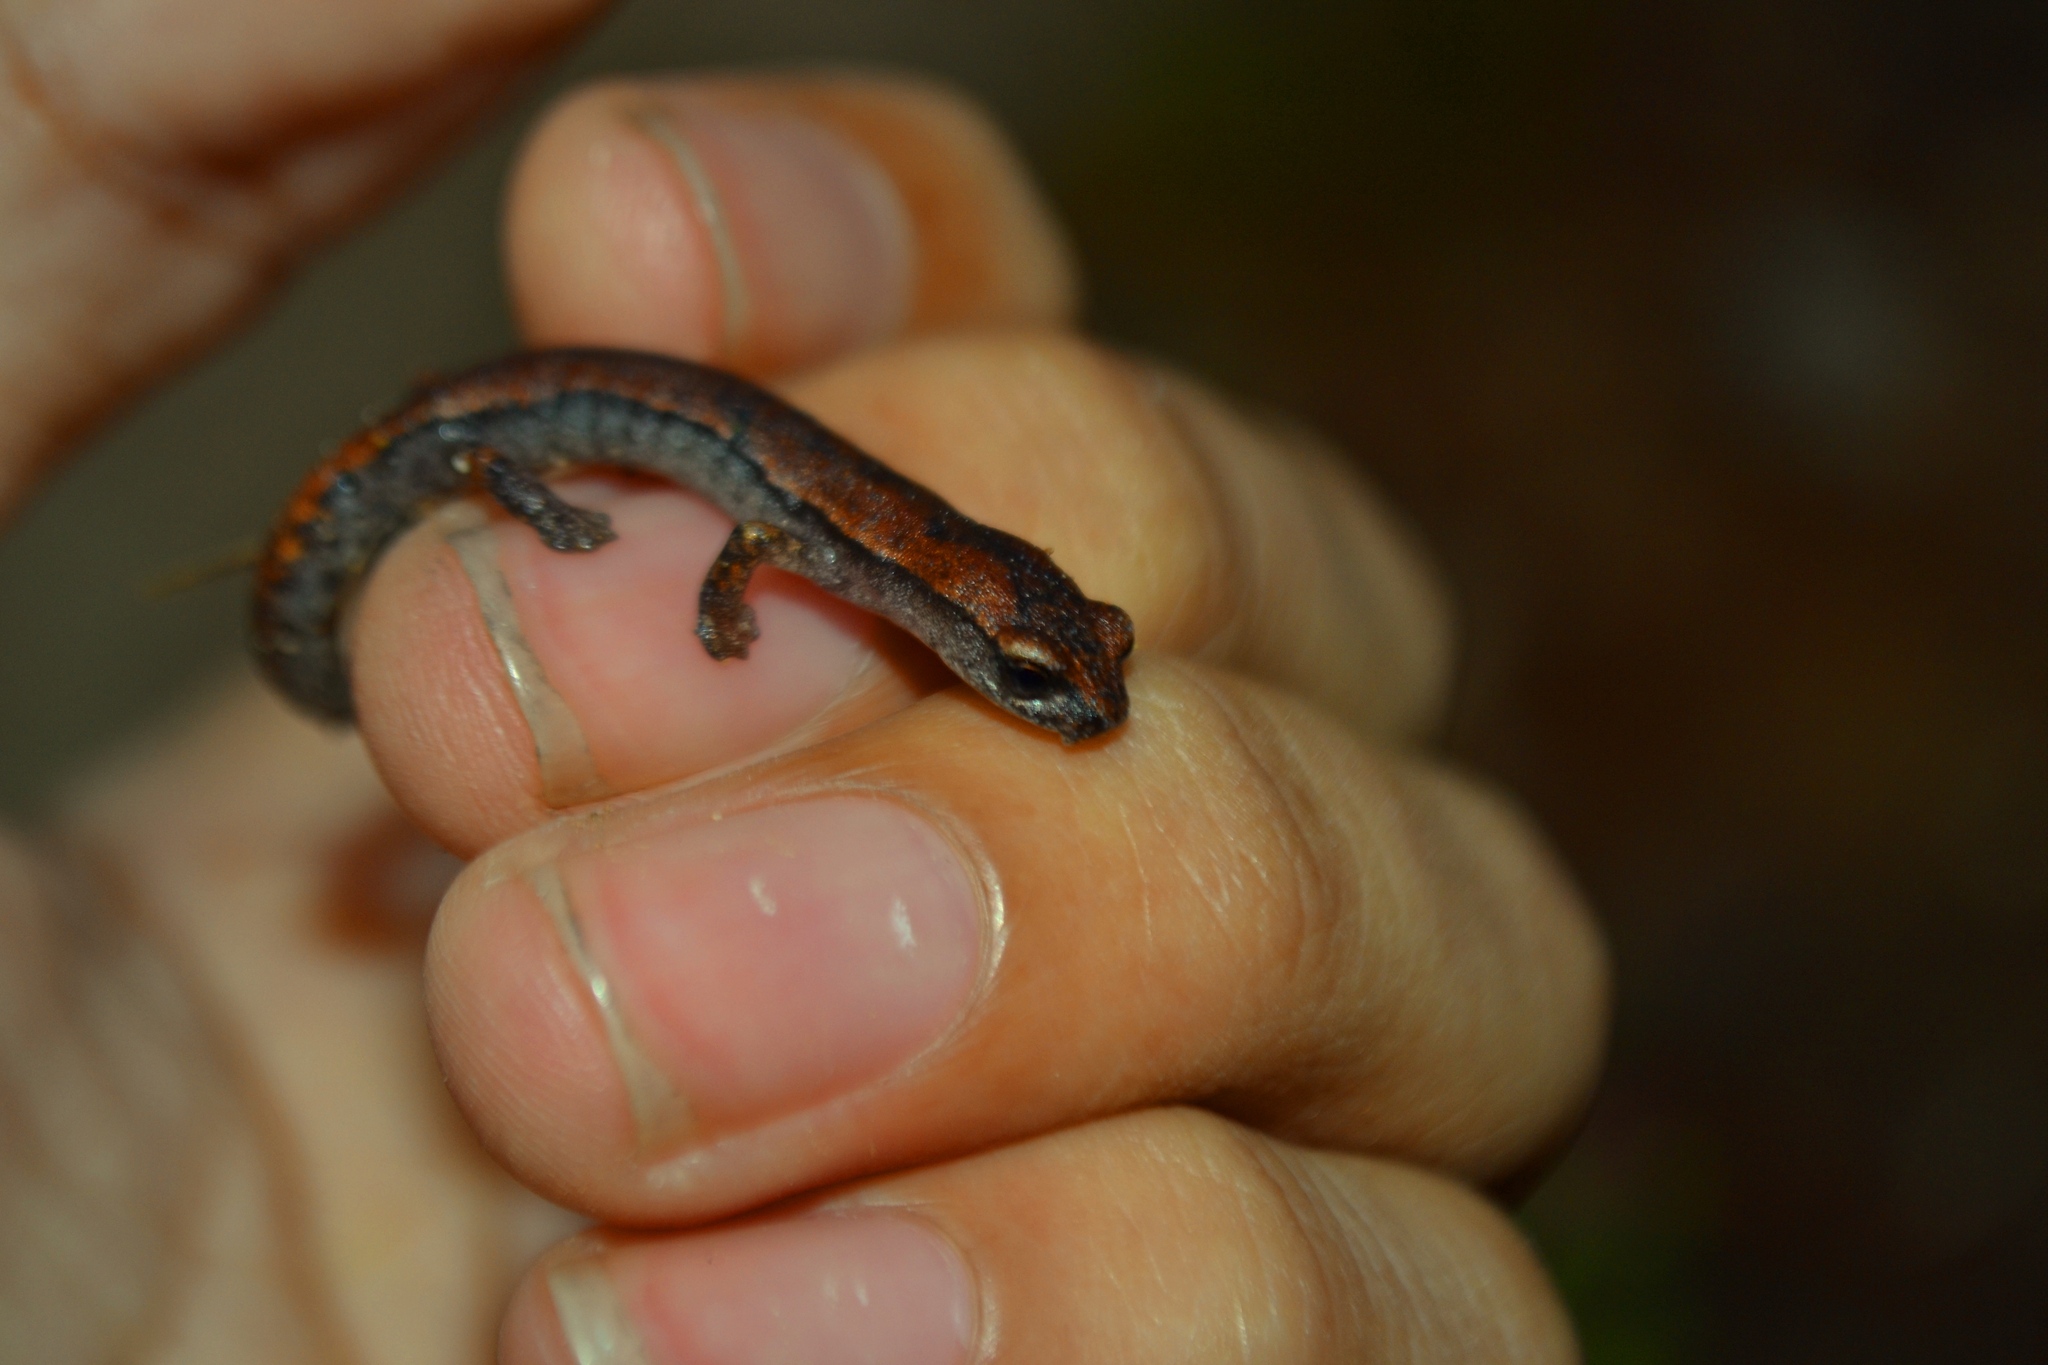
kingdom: Animalia
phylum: Chordata
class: Amphibia
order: Caudata
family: Plethodontidae
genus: Bolitoglossa
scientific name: Bolitoglossa hartwegi
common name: Hartweg's mushroomtongue salamander
